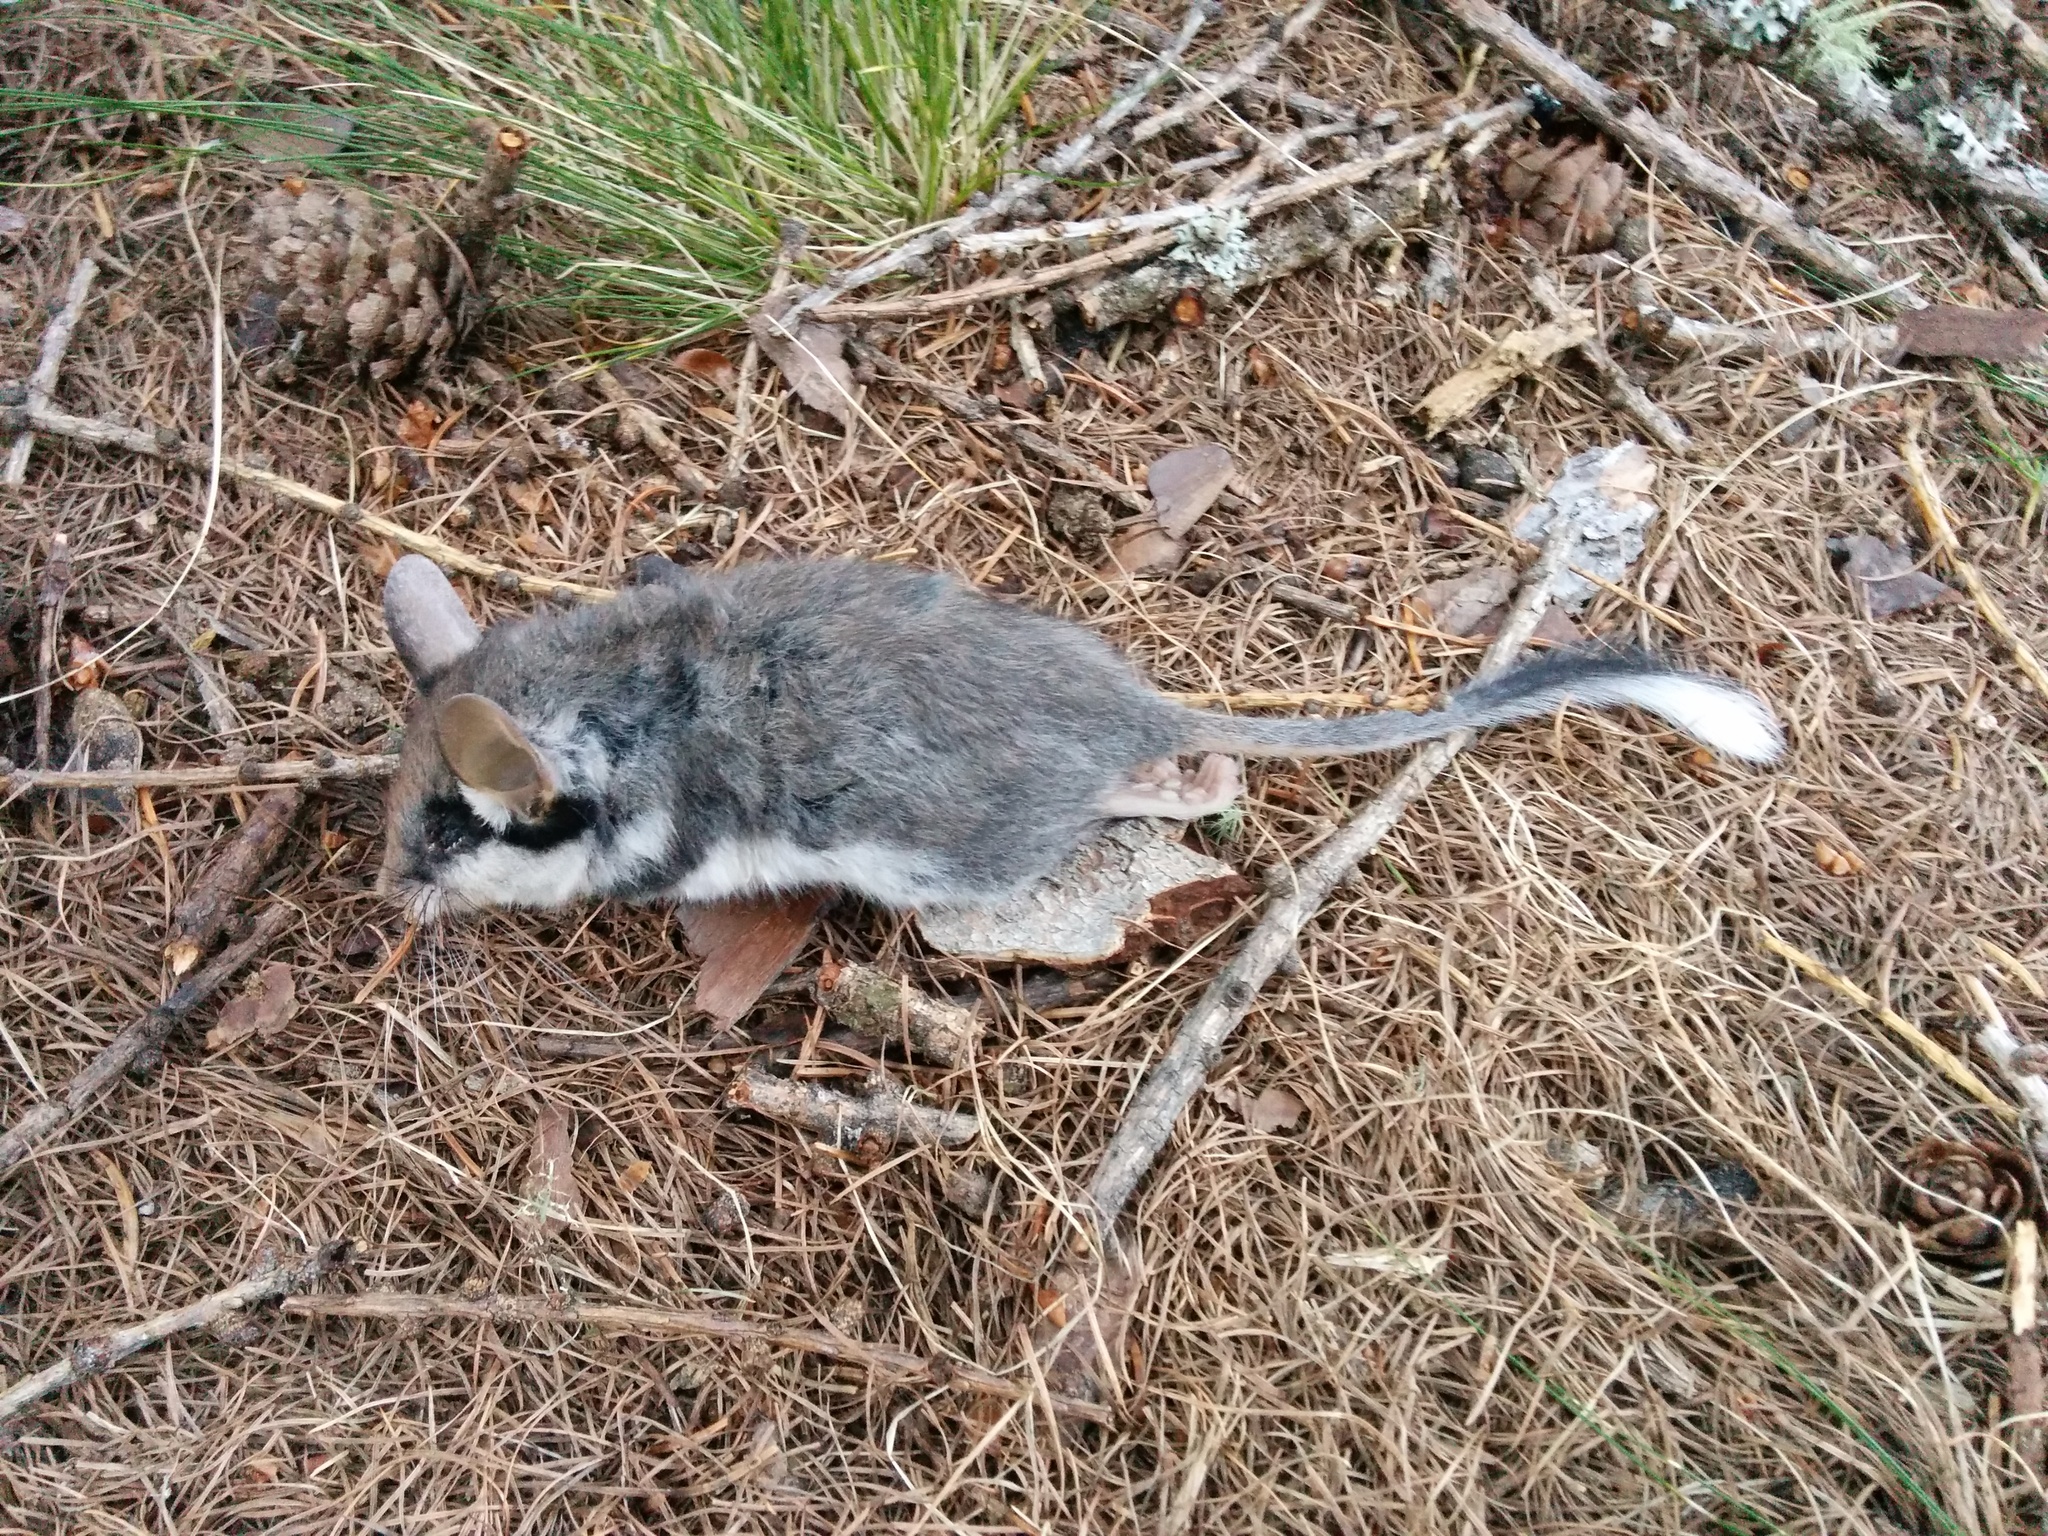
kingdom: Animalia
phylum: Chordata
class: Mammalia
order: Rodentia
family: Gliridae
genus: Eliomys
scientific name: Eliomys quercinus
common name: Garden dormouse
